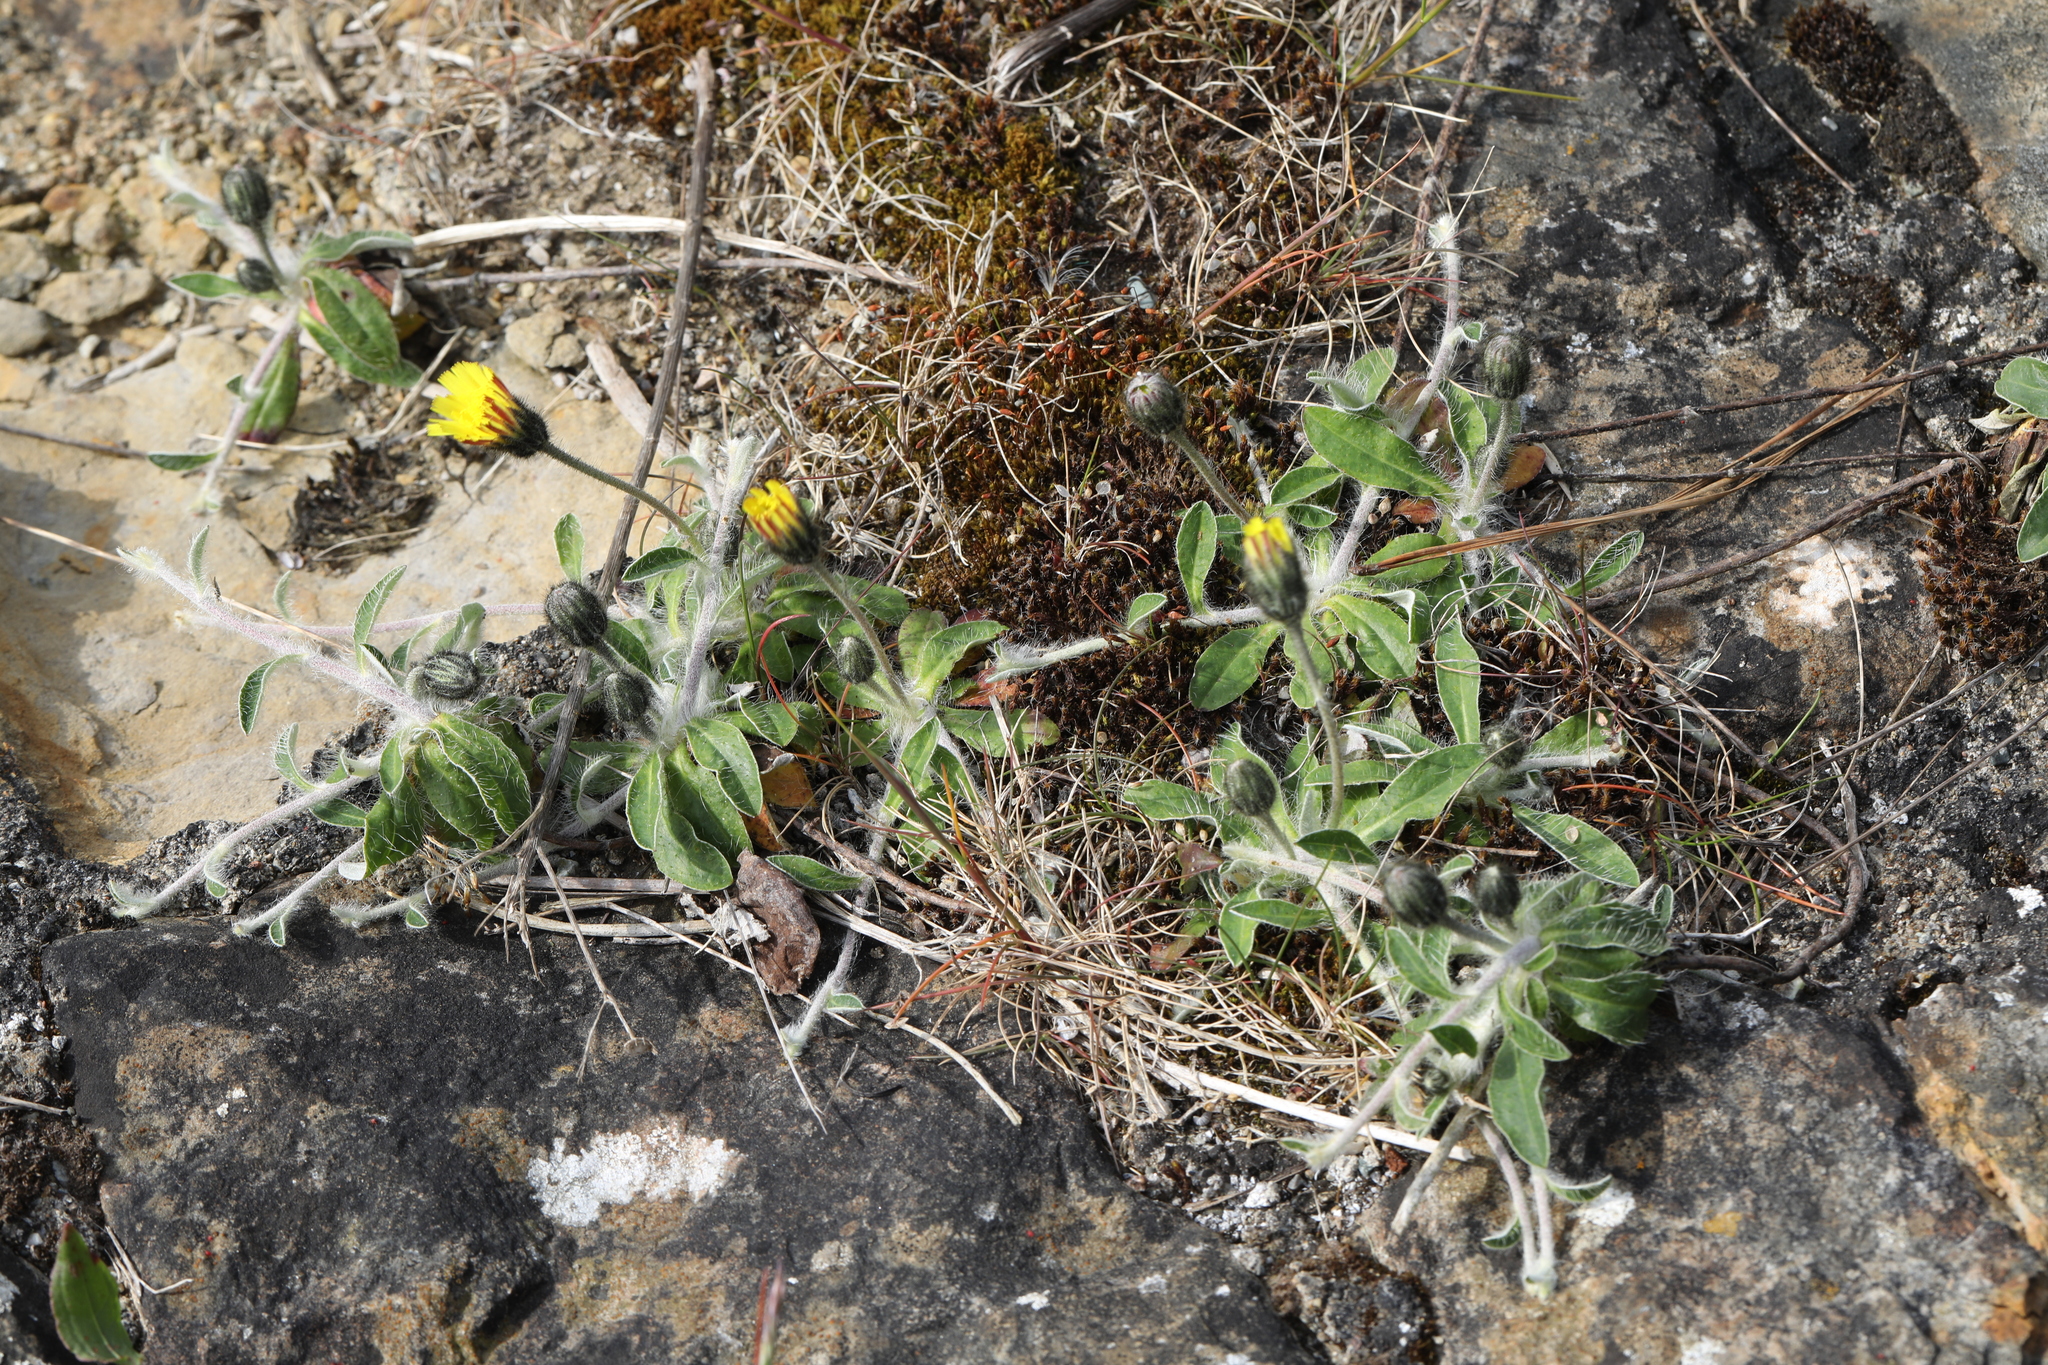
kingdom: Plantae
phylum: Tracheophyta
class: Magnoliopsida
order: Asterales
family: Asteraceae
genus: Pilosella
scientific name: Pilosella officinarum
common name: Mouse-ear hawkweed
